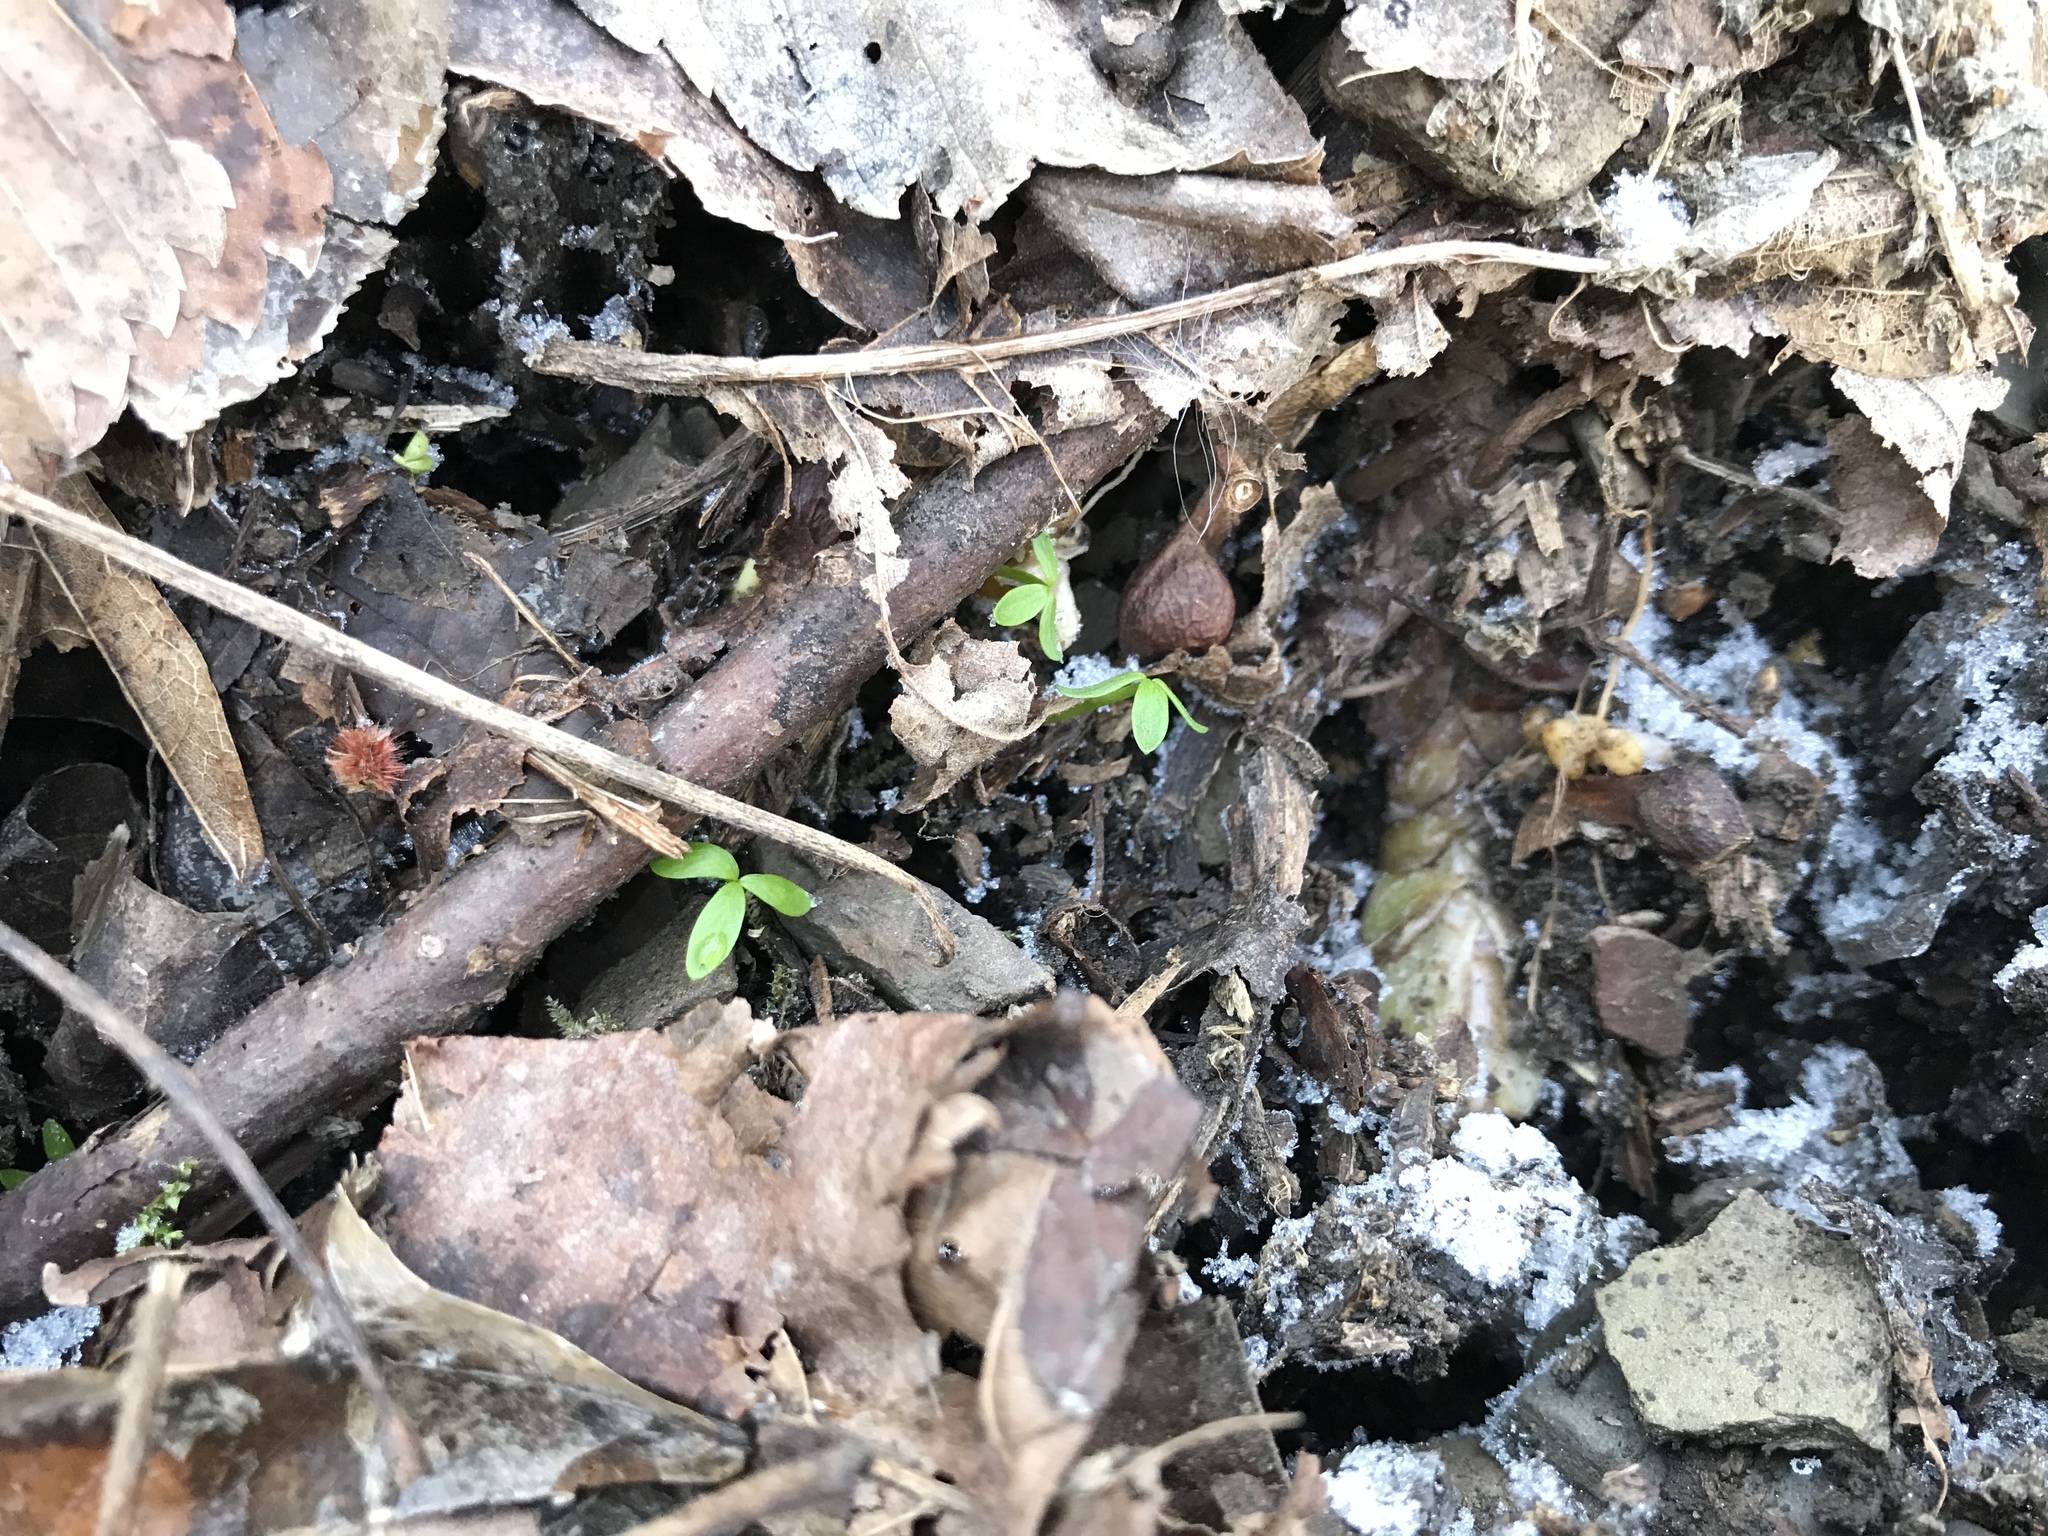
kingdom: Plantae
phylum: Tracheophyta
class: Magnoliopsida
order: Brassicales
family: Limnanthaceae
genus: Floerkea
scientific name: Floerkea proserpinacoides
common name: False mermaid
